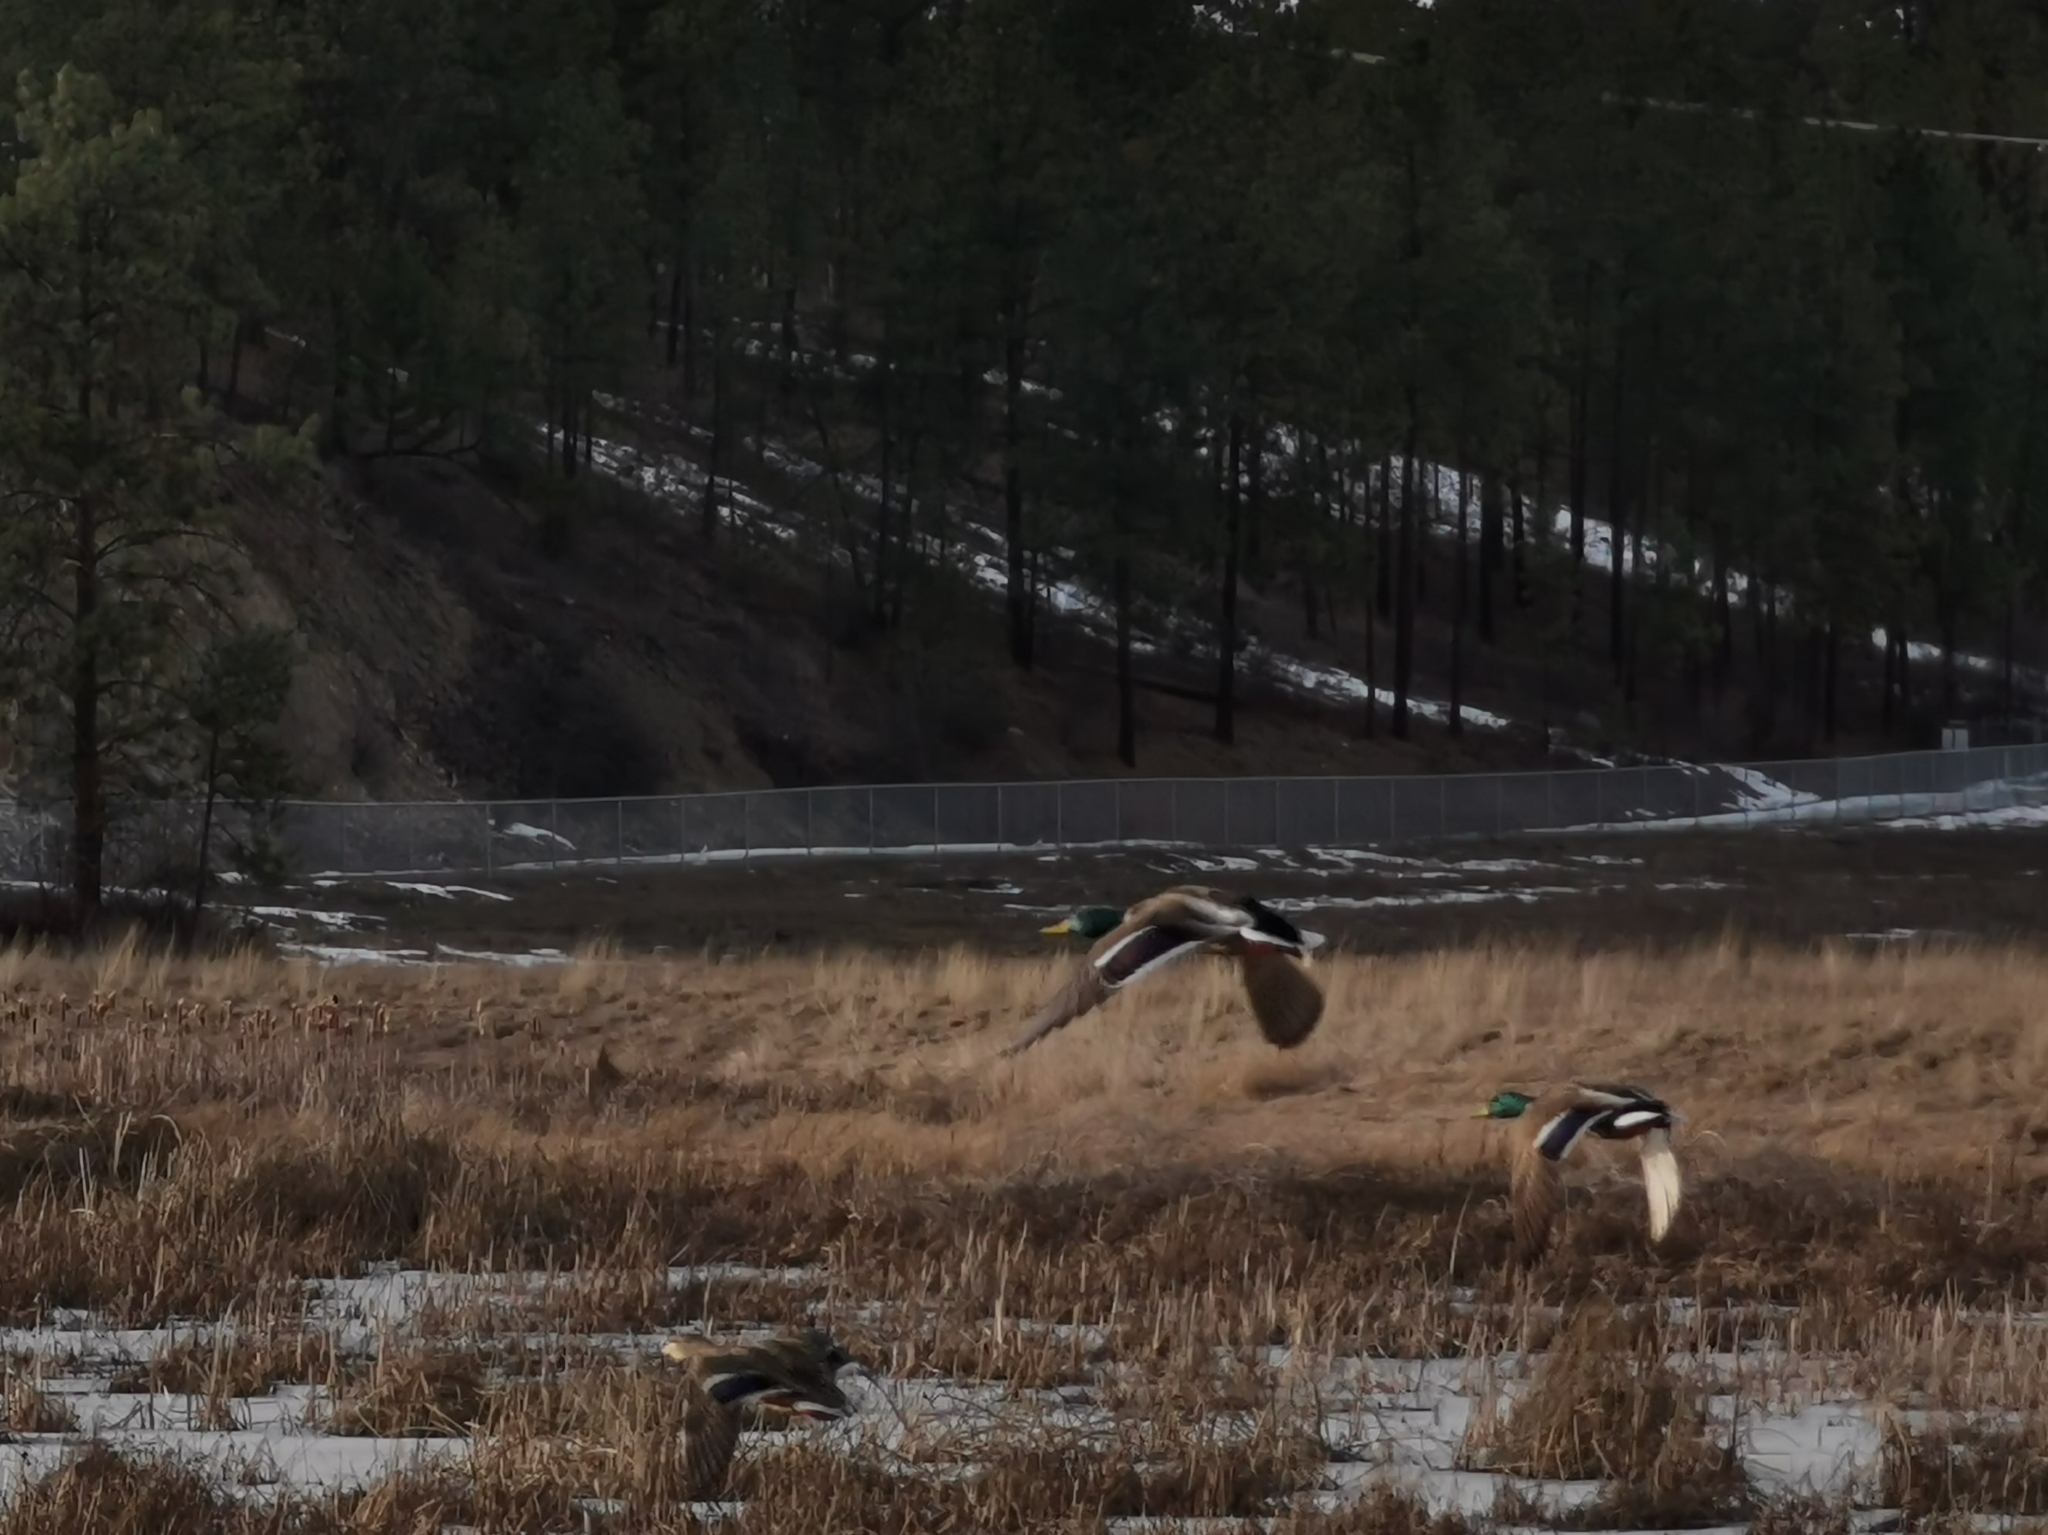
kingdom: Animalia
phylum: Chordata
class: Aves
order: Anseriformes
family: Anatidae
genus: Anas
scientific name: Anas platyrhynchos
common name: Mallard
